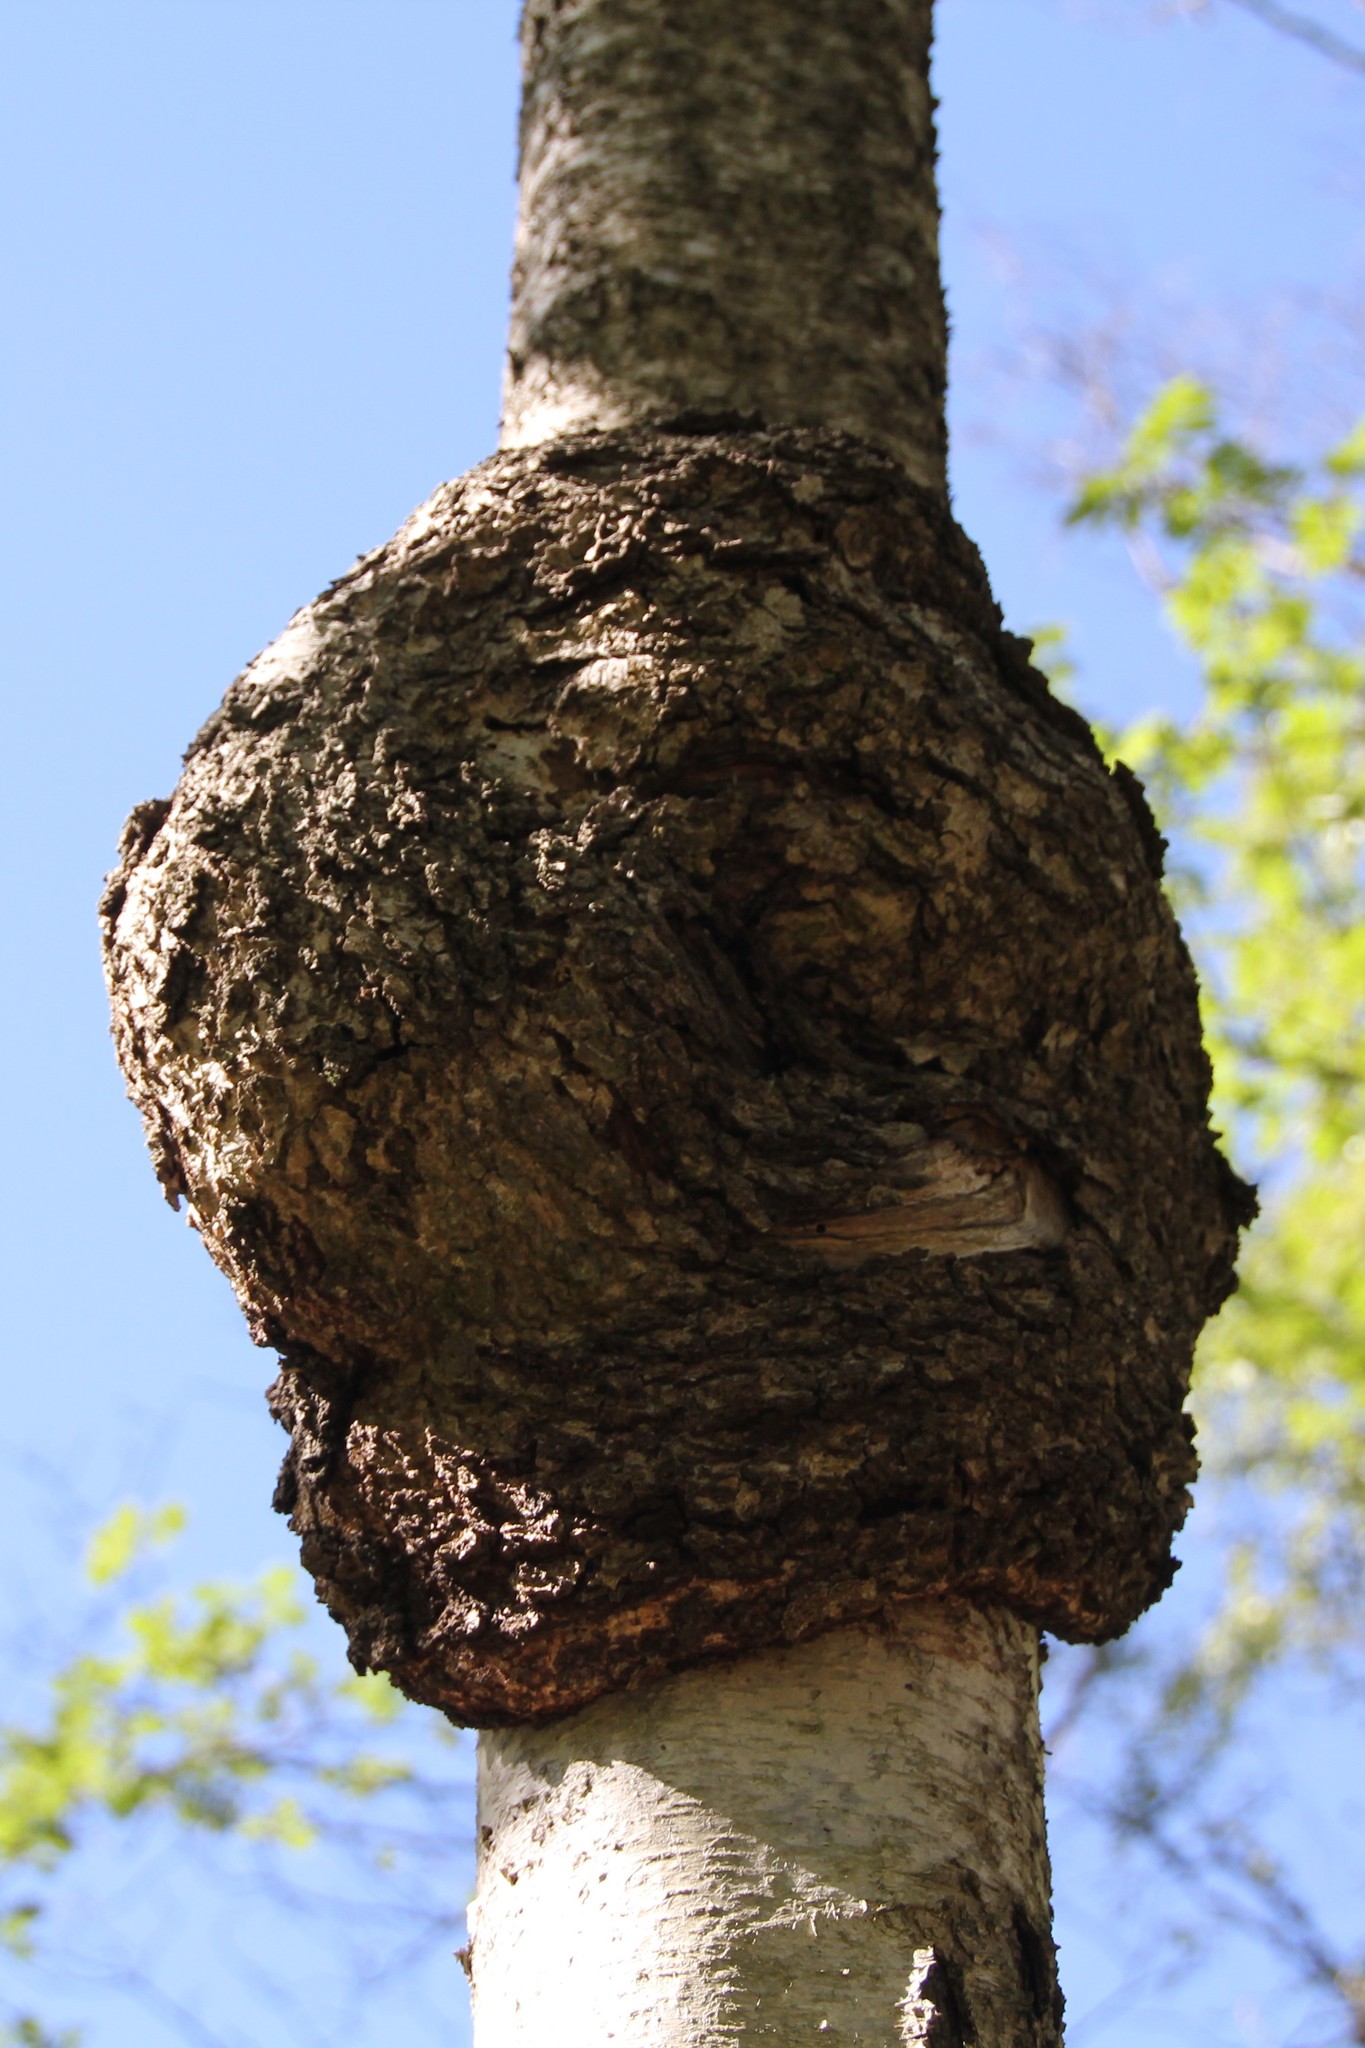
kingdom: Bacteria
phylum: Proteobacteria
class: Alphaproteobacteria
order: Rhizobiales
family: Rhizobiaceae
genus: Rhizobium
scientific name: Rhizobium Agrobacterium radiobacter
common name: Bacterial crown gall
